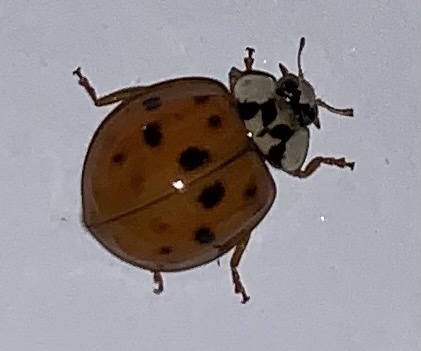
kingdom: Animalia
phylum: Arthropoda
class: Insecta
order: Coleoptera
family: Coccinellidae
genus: Harmonia
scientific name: Harmonia axyridis
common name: Harlequin ladybird
